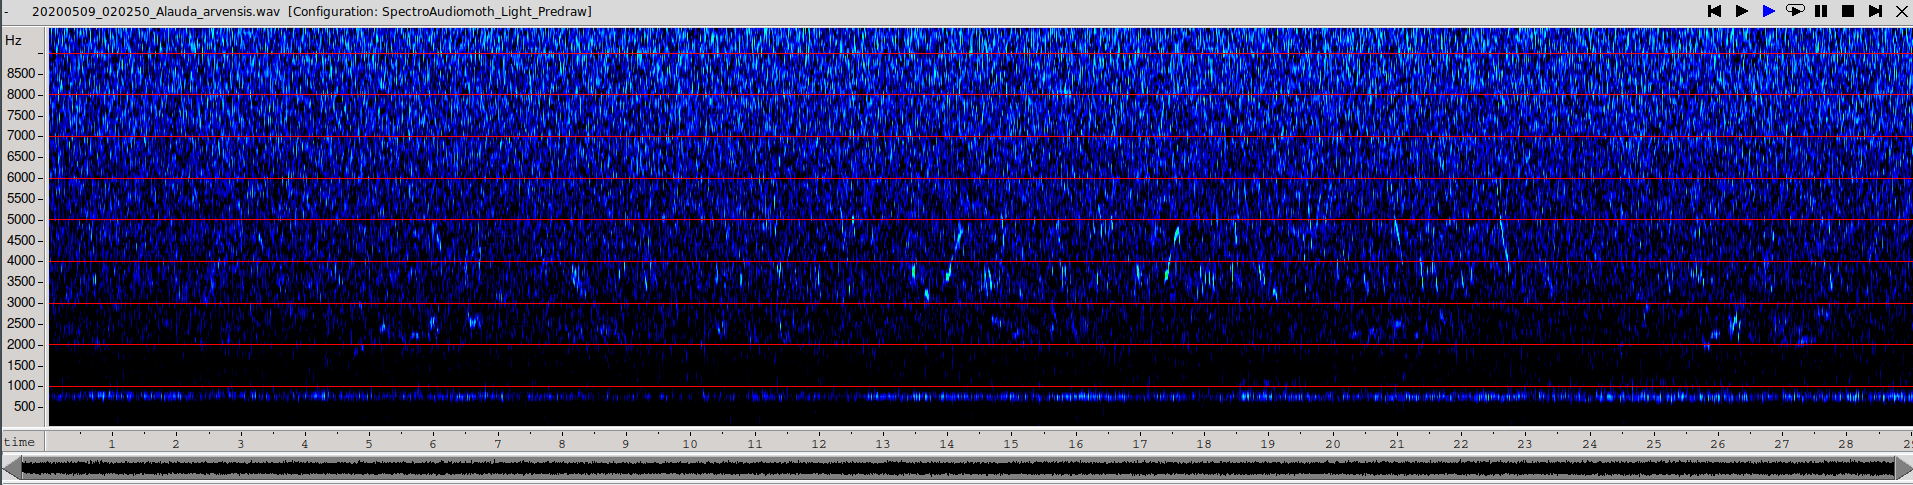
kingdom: Animalia
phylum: Chordata
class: Aves
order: Passeriformes
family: Alaudidae
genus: Alauda
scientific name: Alauda arvensis
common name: Eurasian skylark
